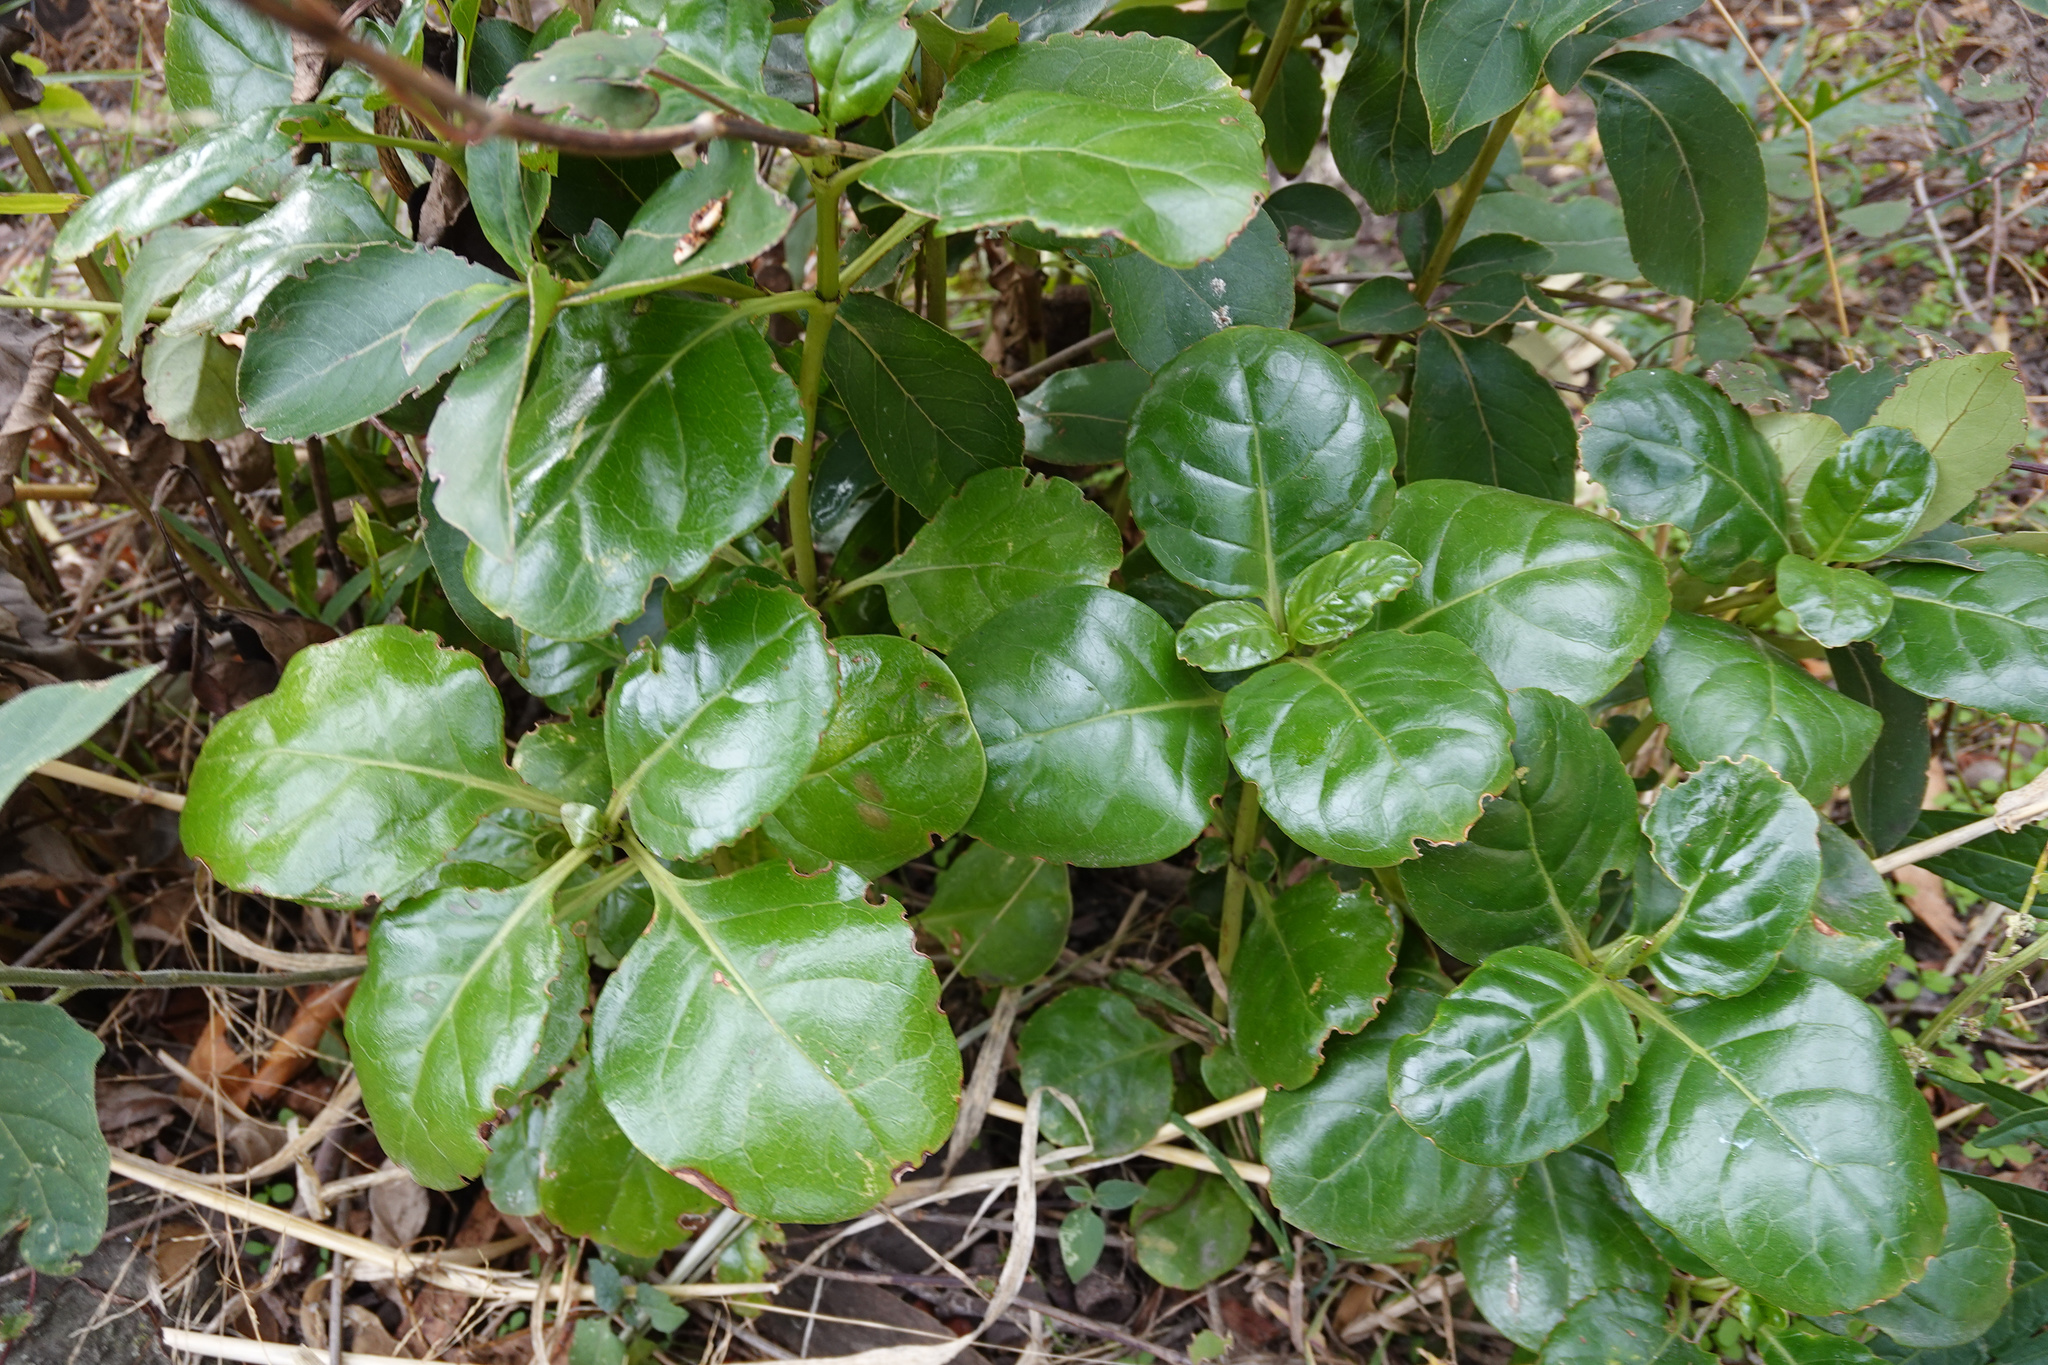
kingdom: Plantae
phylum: Tracheophyta
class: Magnoliopsida
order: Gentianales
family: Rubiaceae
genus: Coprosma
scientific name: Coprosma repens
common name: Tree bedstraw
